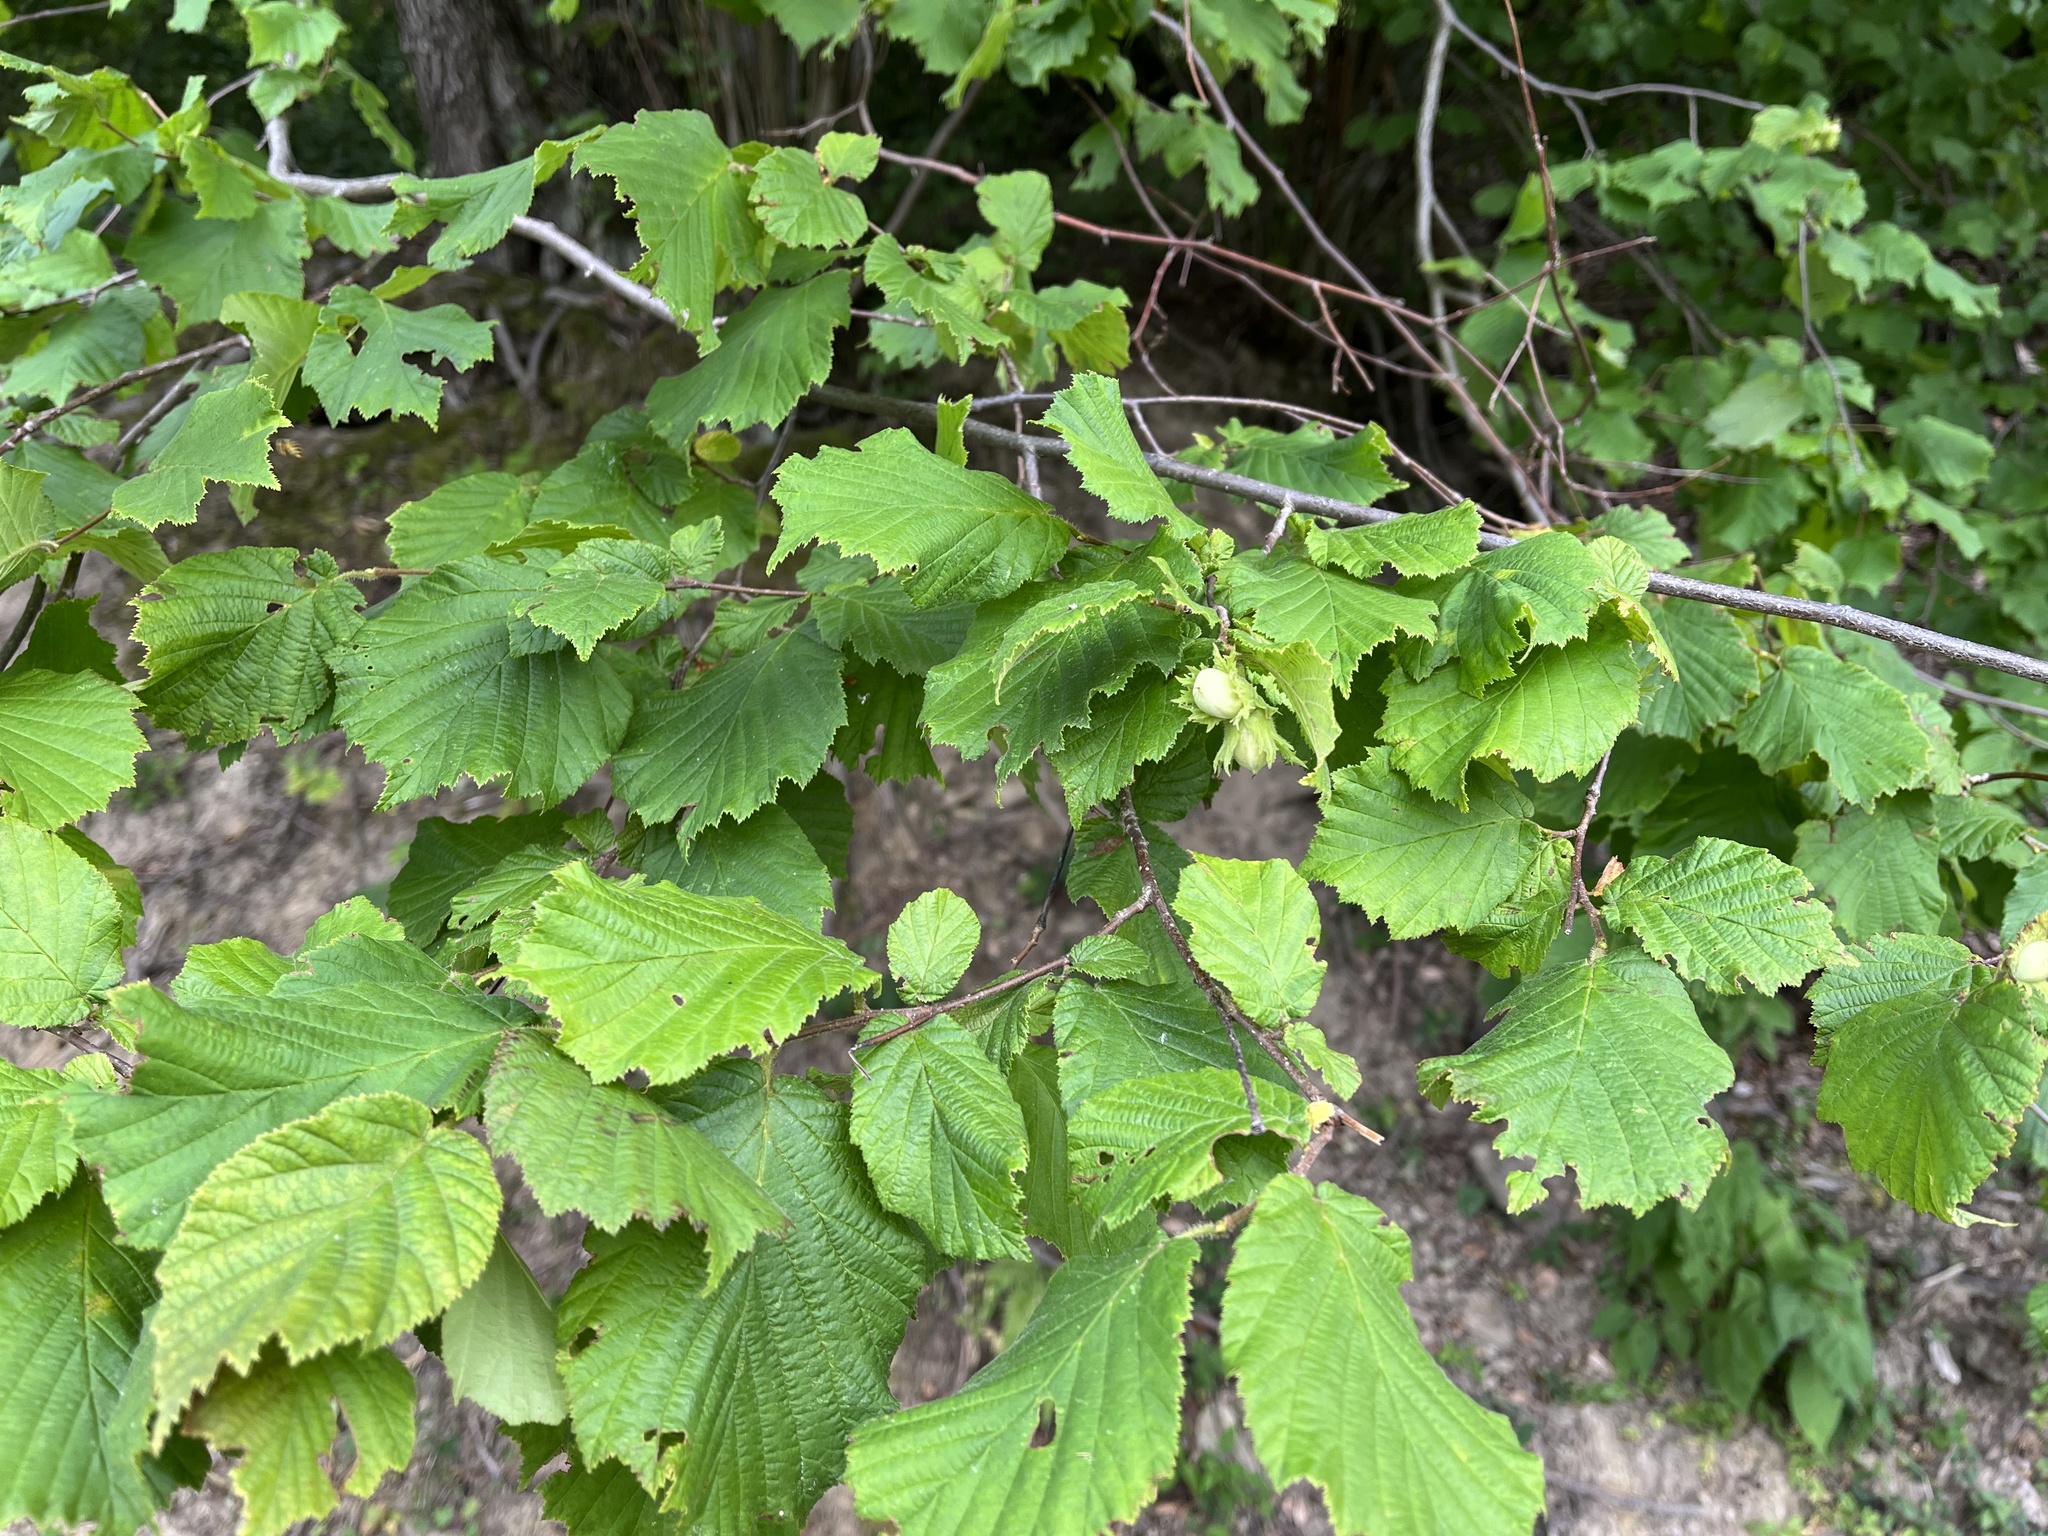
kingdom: Plantae
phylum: Tracheophyta
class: Magnoliopsida
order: Fagales
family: Betulaceae
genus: Corylus
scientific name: Corylus avellana
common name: European hazel
